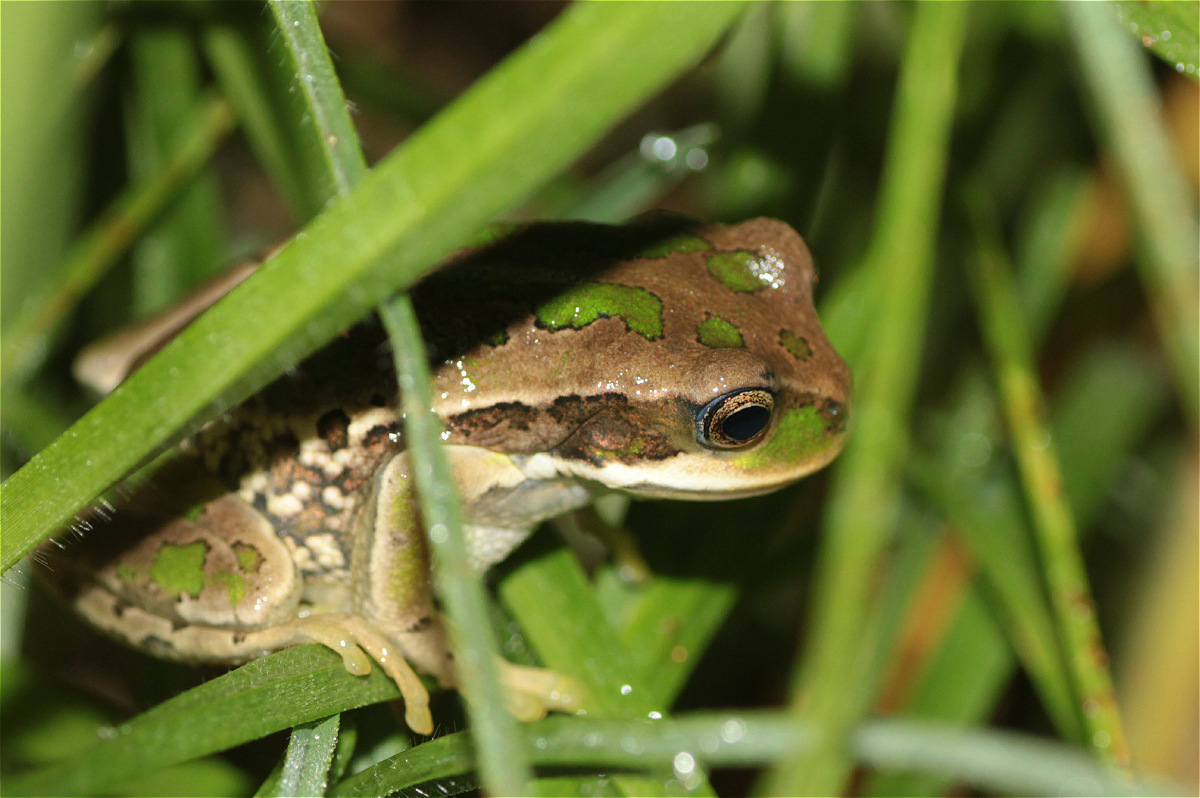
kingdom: Animalia
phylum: Chordata
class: Amphibia
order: Anura
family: Hemiphractidae
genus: Gastrotheca
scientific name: Gastrotheca cuencana
